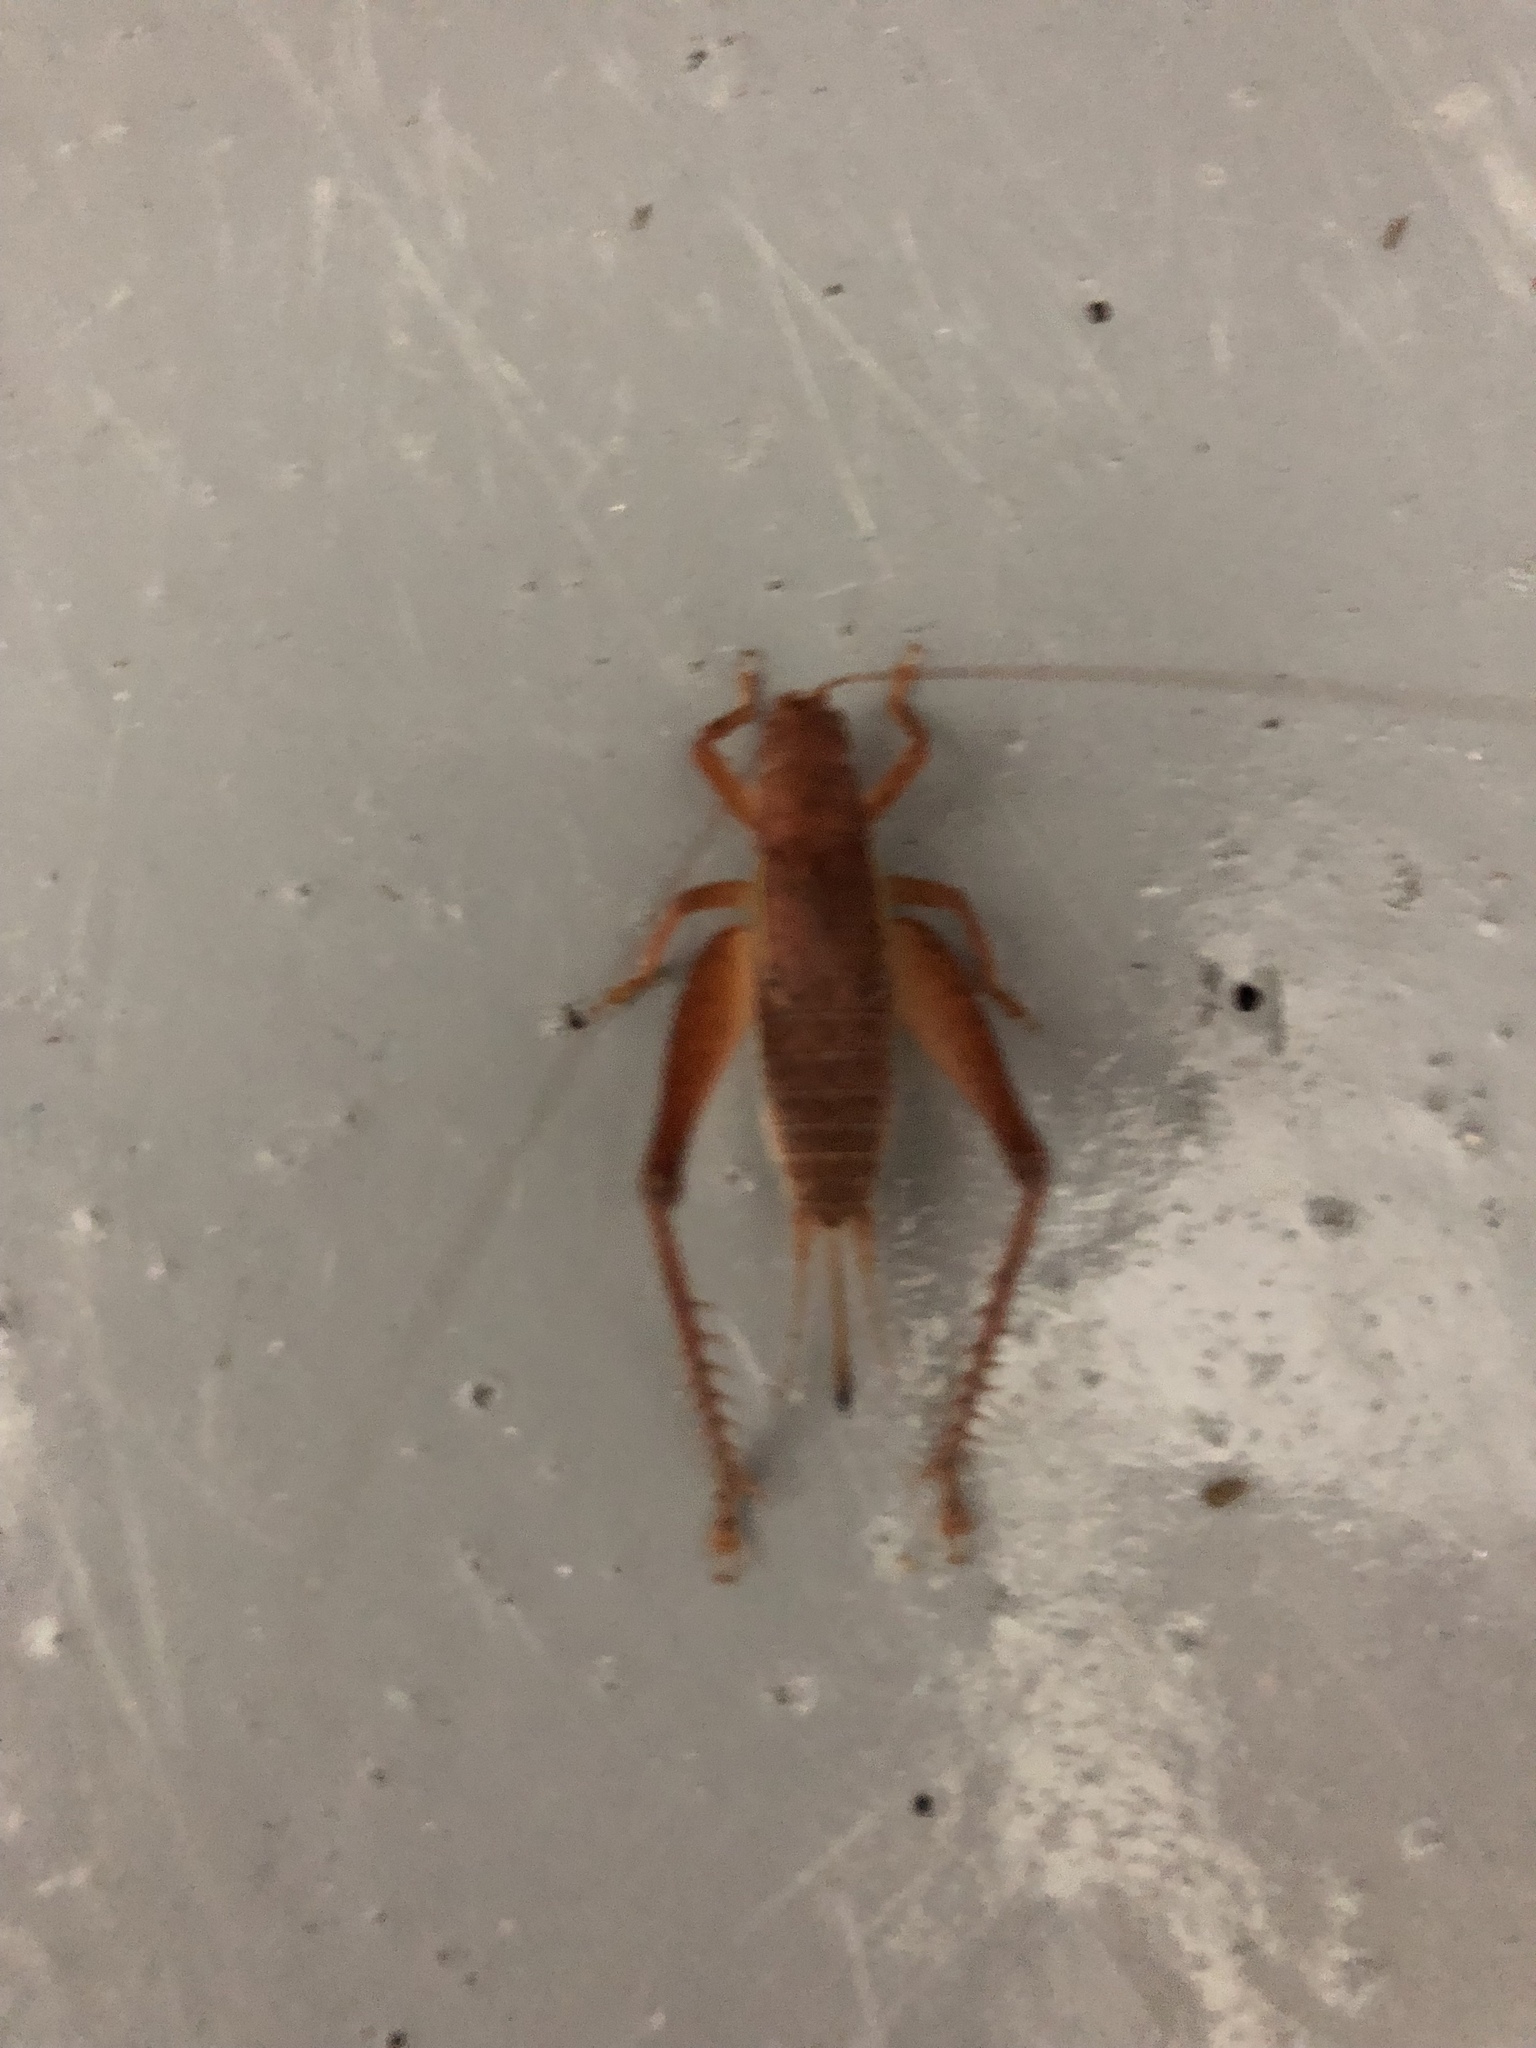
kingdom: Animalia
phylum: Arthropoda
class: Insecta
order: Orthoptera
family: Gryllidae
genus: Hapithus
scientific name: Hapithus brevipennis
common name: Short-winged bush cricket
